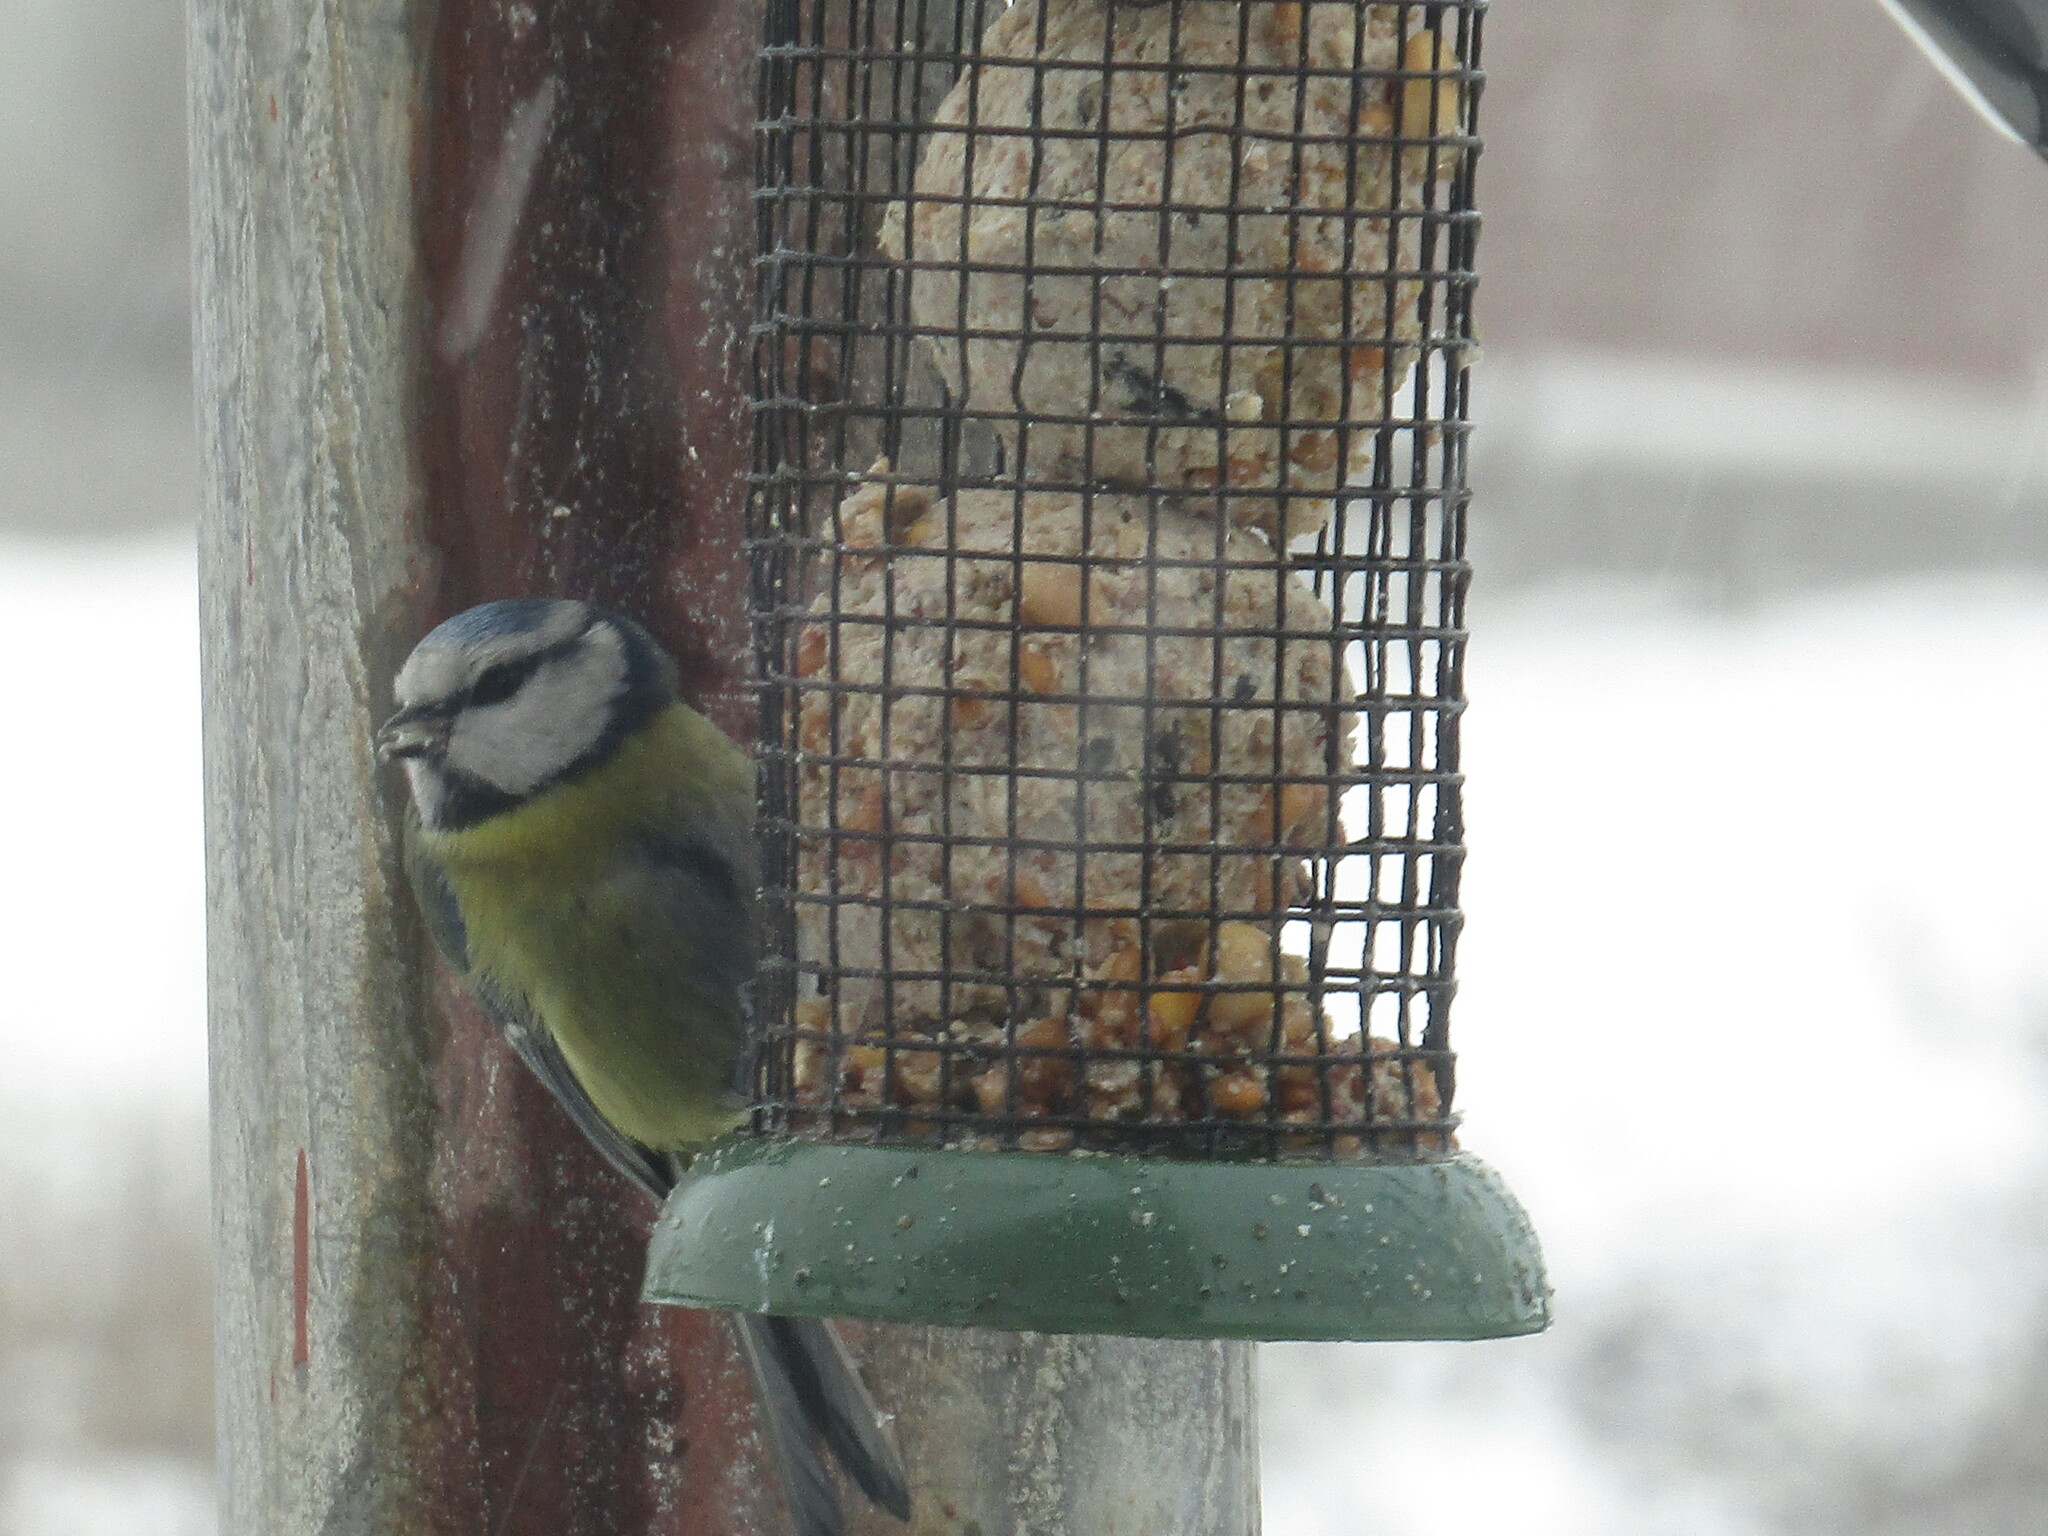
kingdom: Animalia
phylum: Chordata
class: Aves
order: Passeriformes
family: Paridae
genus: Cyanistes
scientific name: Cyanistes caeruleus
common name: Eurasian blue tit
